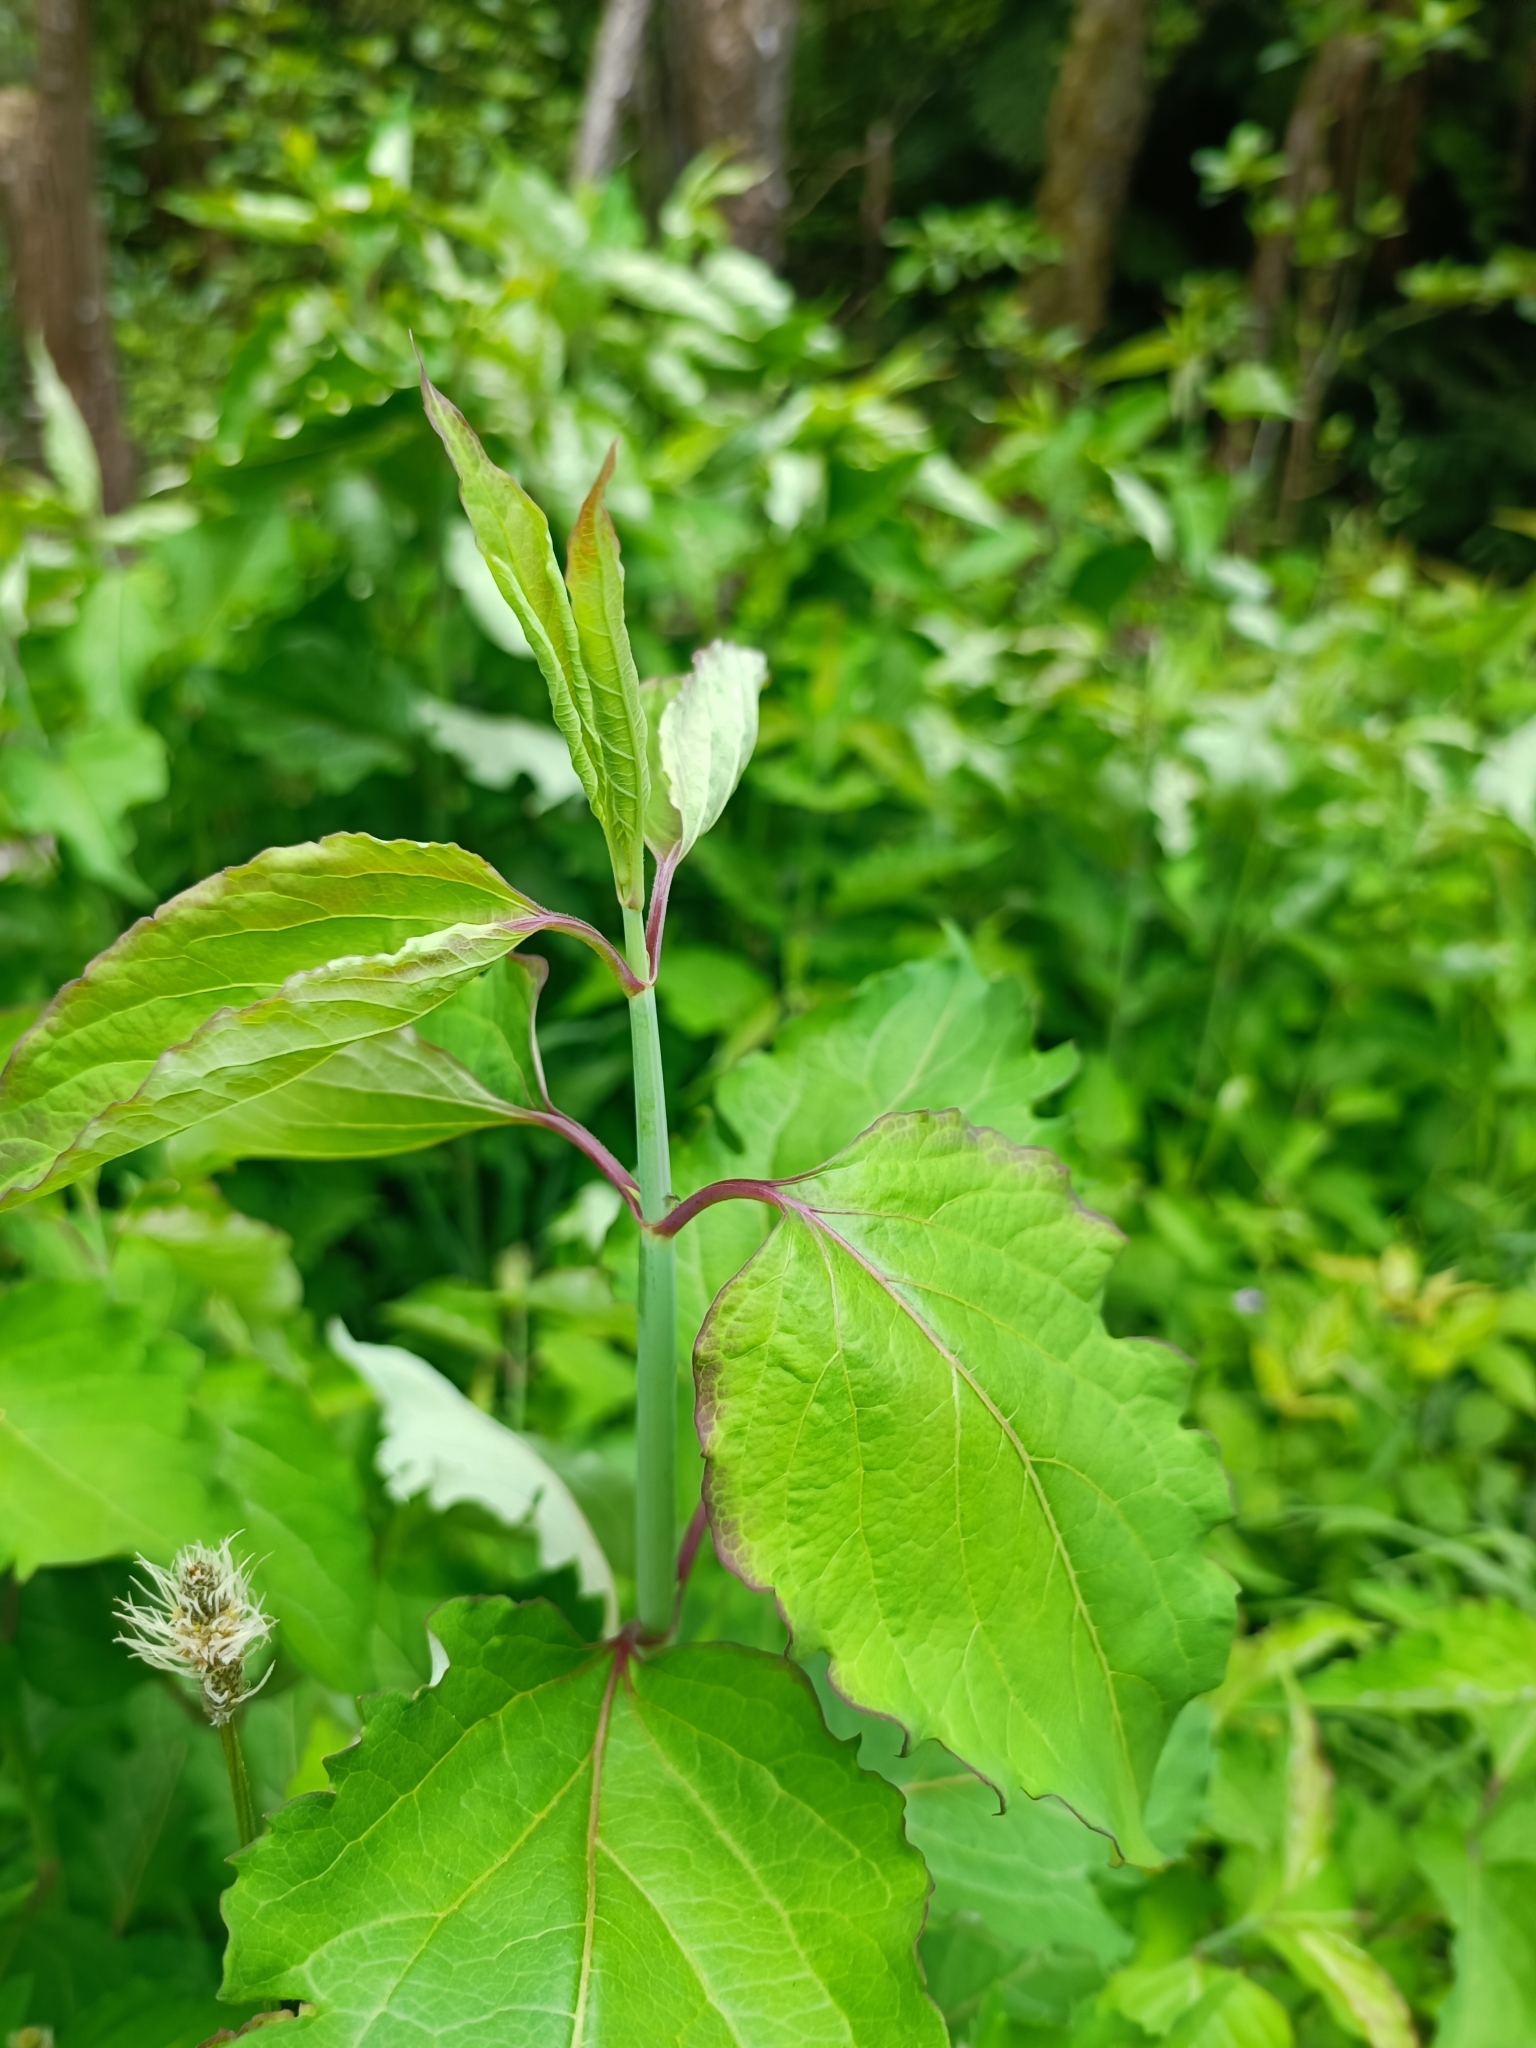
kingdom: Plantae
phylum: Tracheophyta
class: Magnoliopsida
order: Dipsacales
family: Caprifoliaceae
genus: Leycesteria
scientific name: Leycesteria formosa
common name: Himalayan honeysuckle
